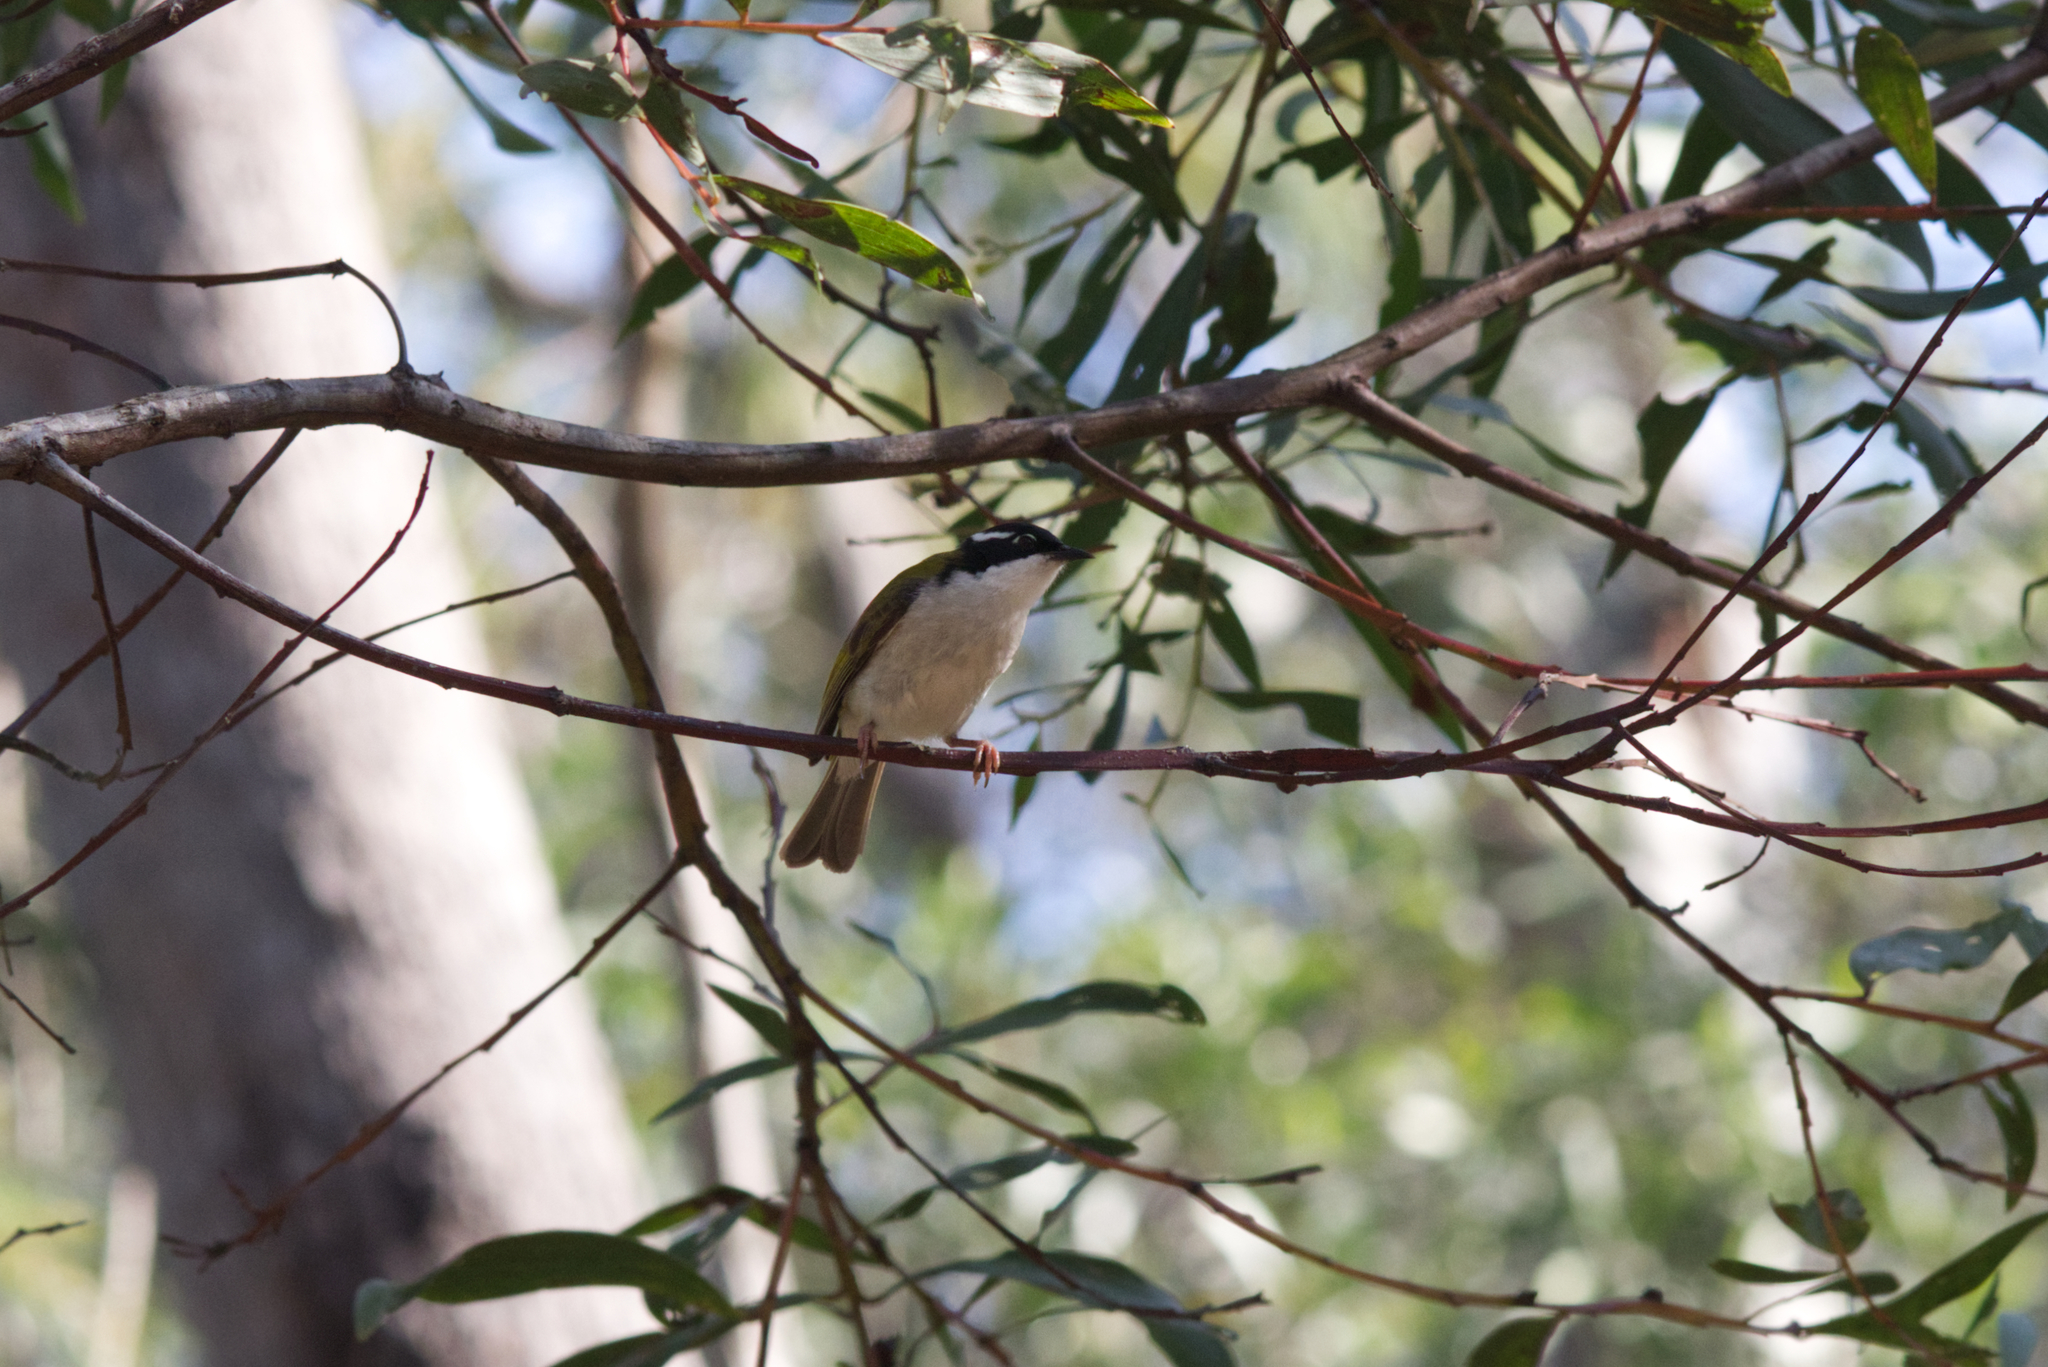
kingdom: Animalia
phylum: Chordata
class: Aves
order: Passeriformes
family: Meliphagidae
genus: Melithreptus
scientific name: Melithreptus albogularis
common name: White-throated honeyeater
